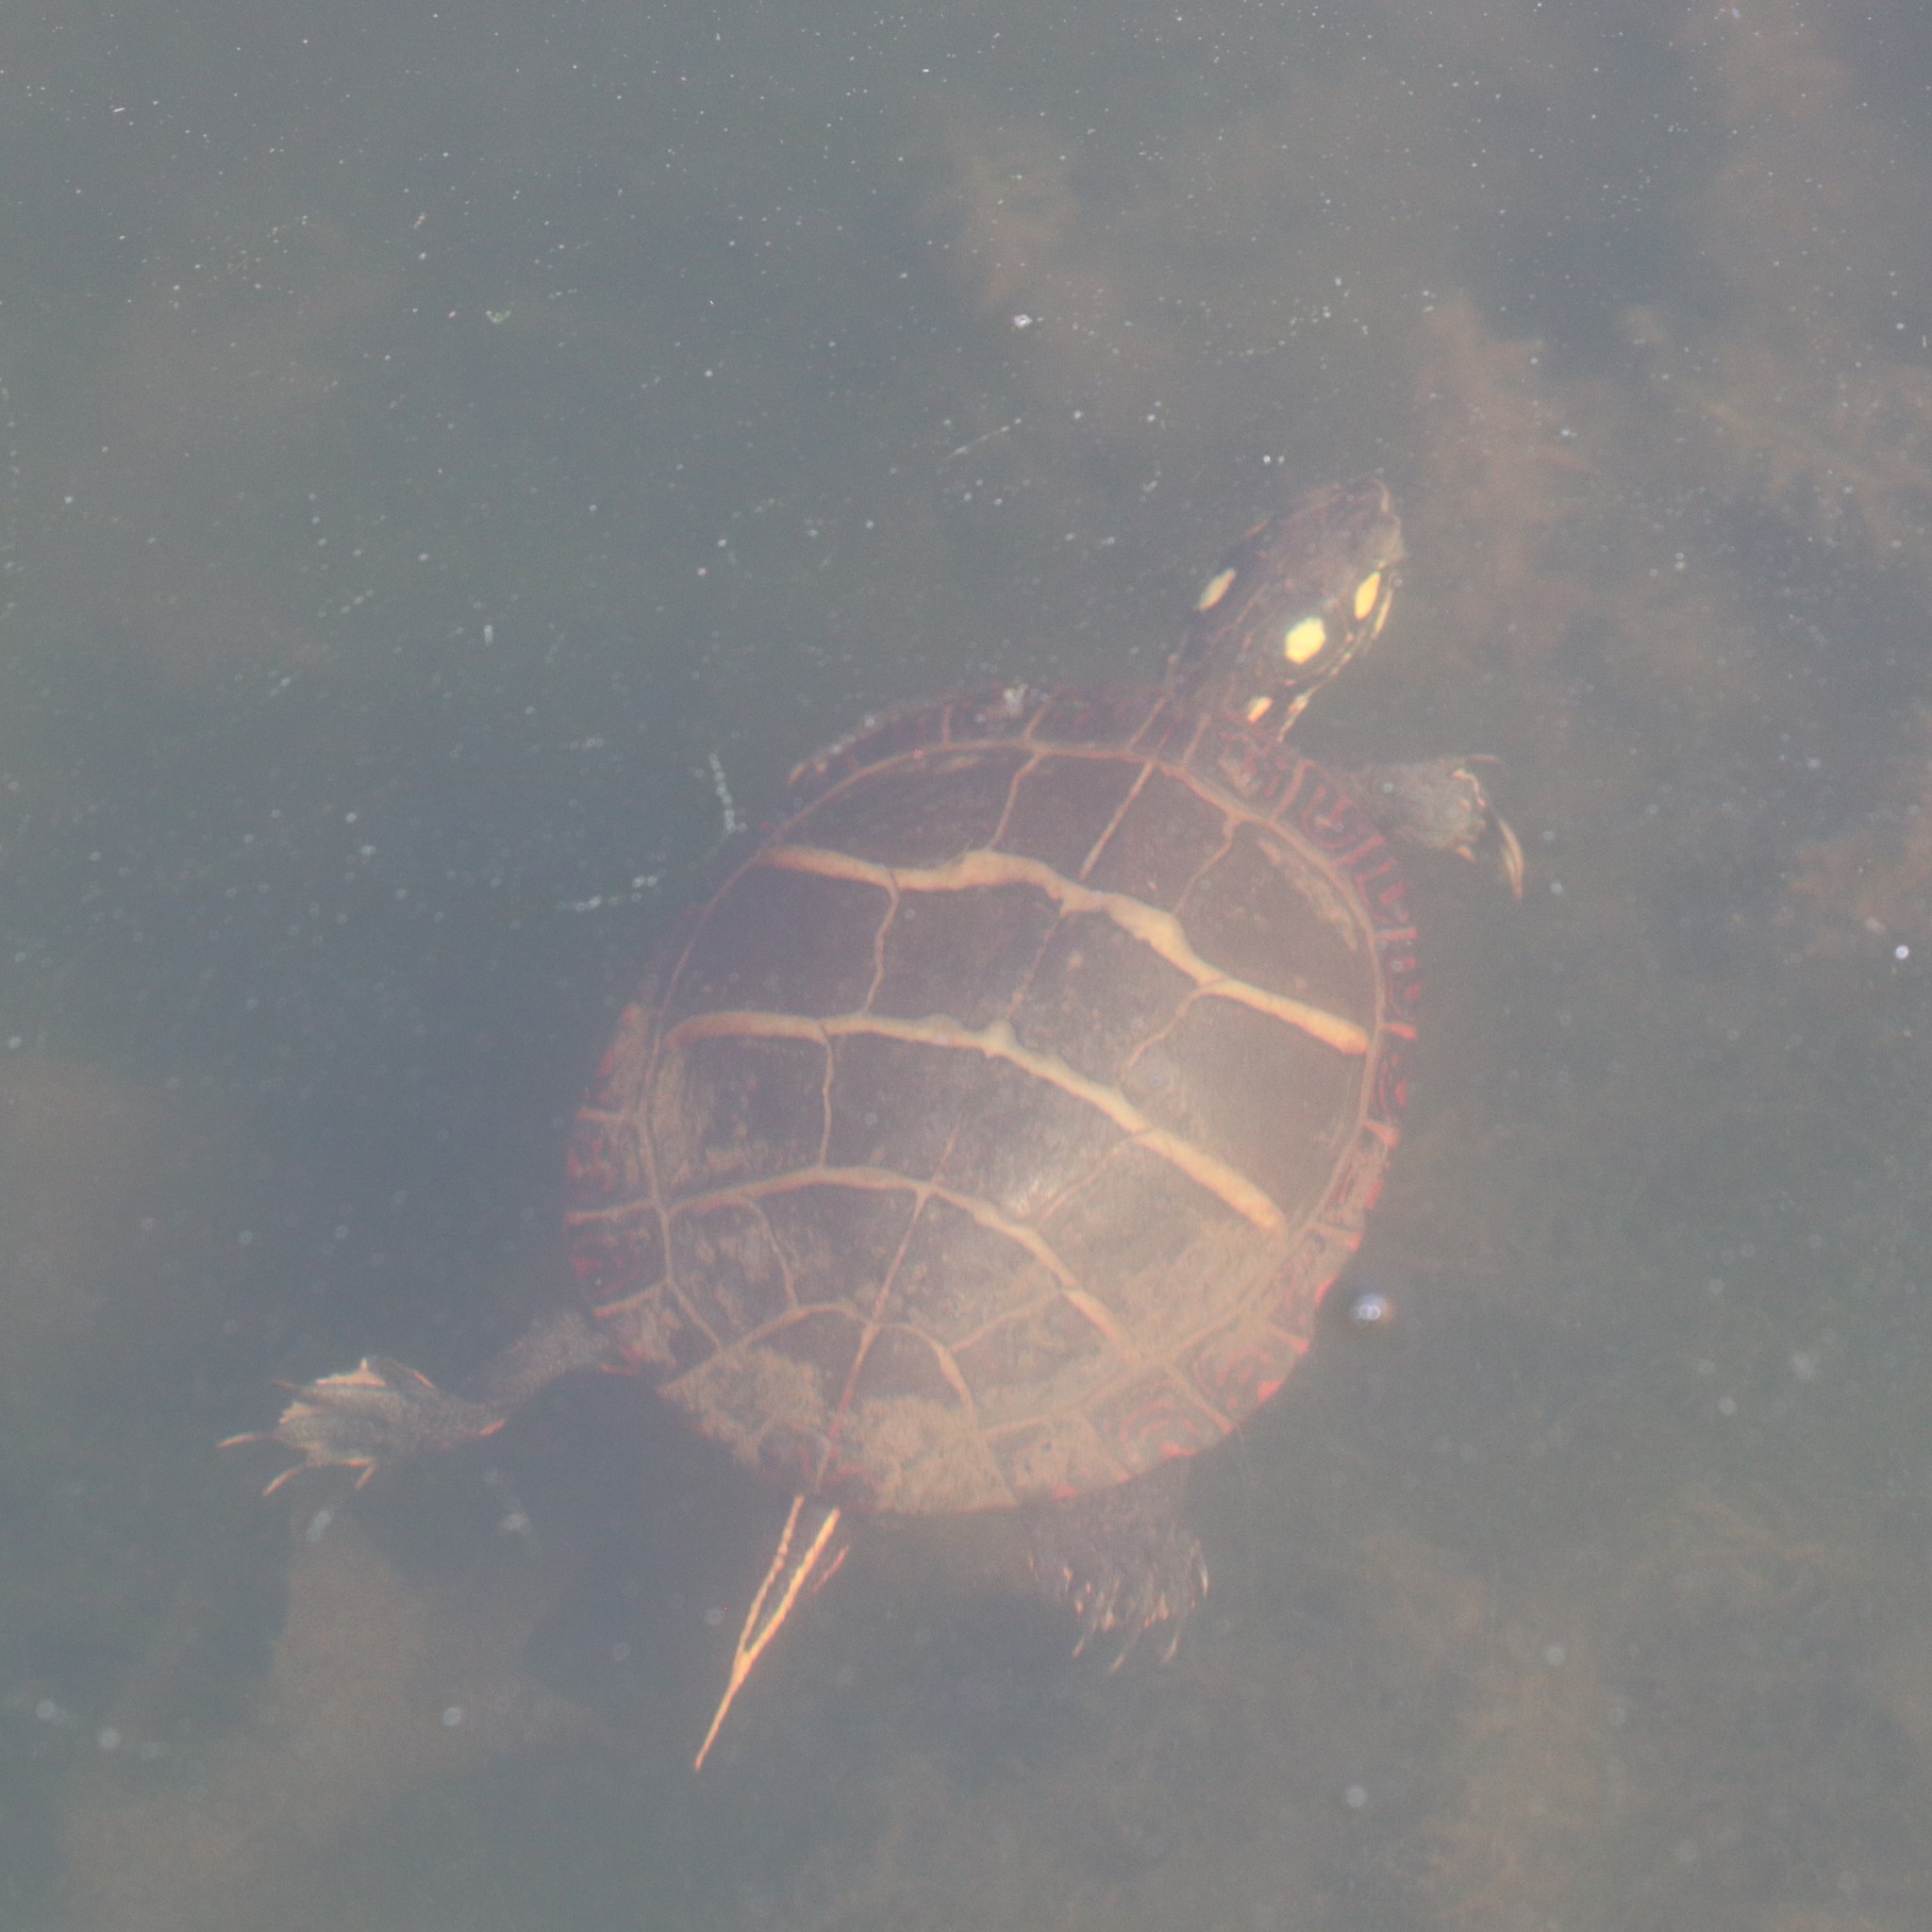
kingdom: Animalia
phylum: Chordata
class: Testudines
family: Emydidae
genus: Chrysemys
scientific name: Chrysemys picta
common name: Painted turtle
